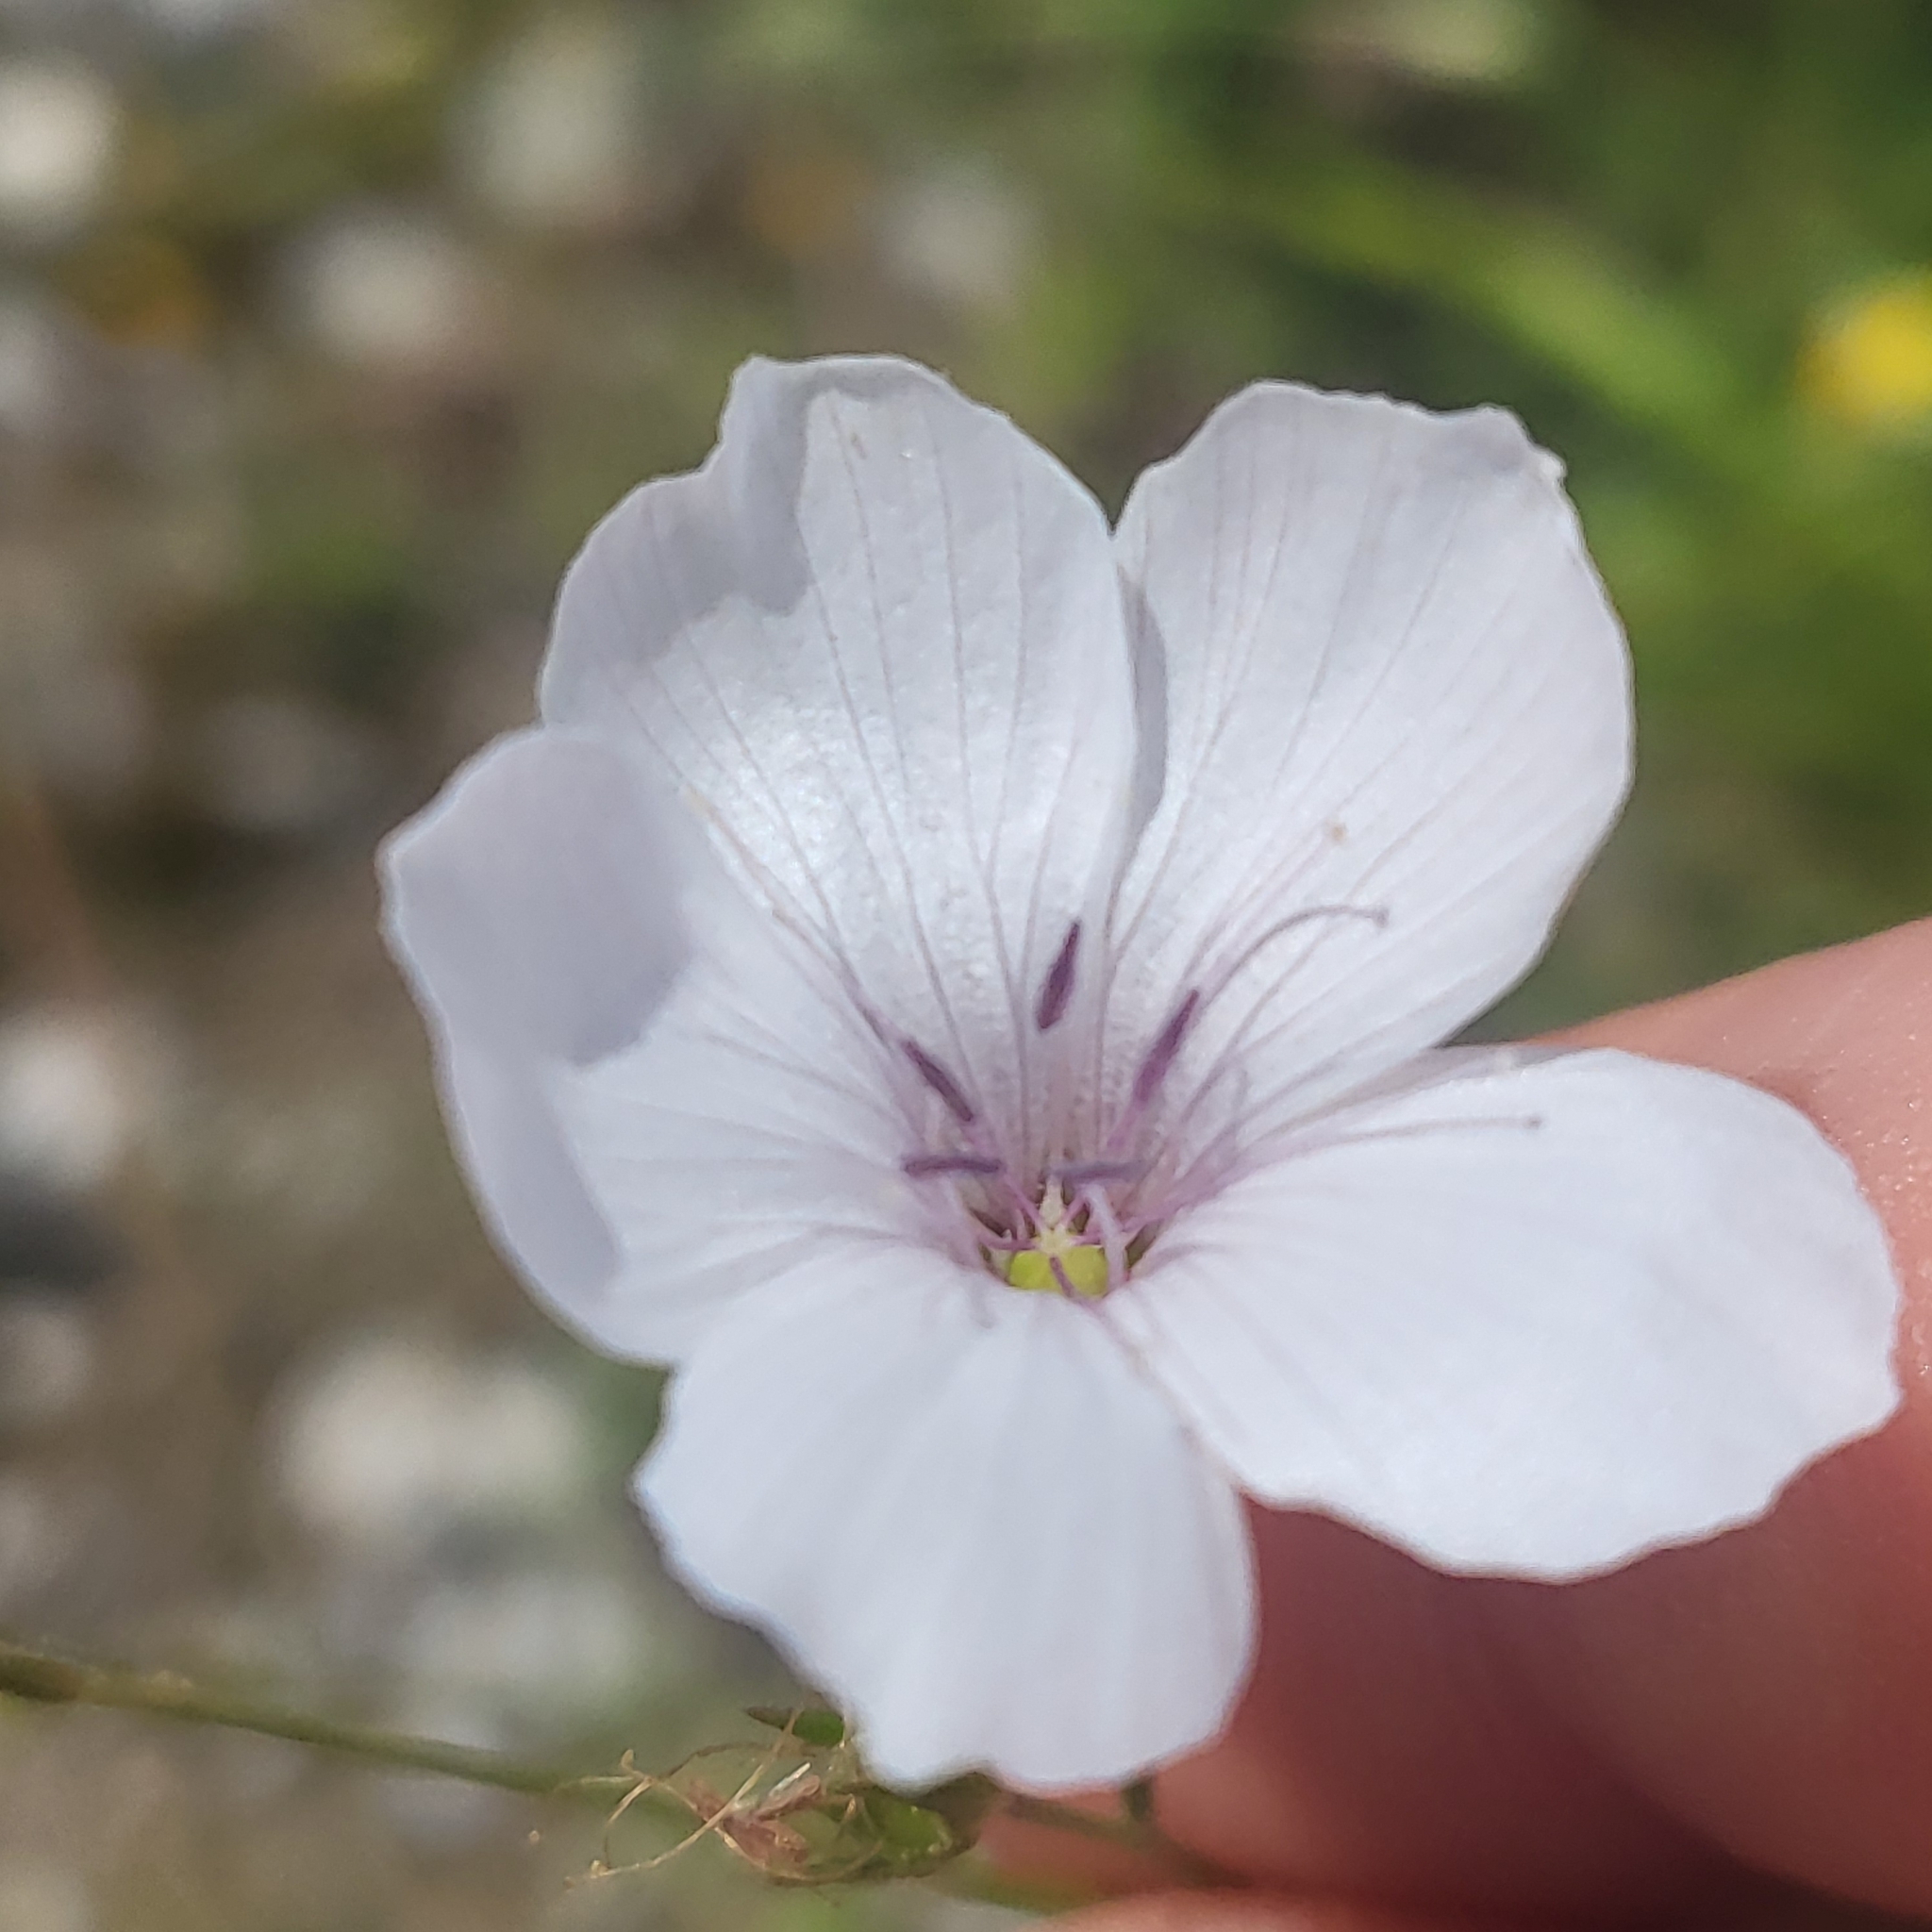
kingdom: Plantae
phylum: Tracheophyta
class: Magnoliopsida
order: Malpighiales
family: Linaceae
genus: Linum
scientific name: Linum tenuifolium
